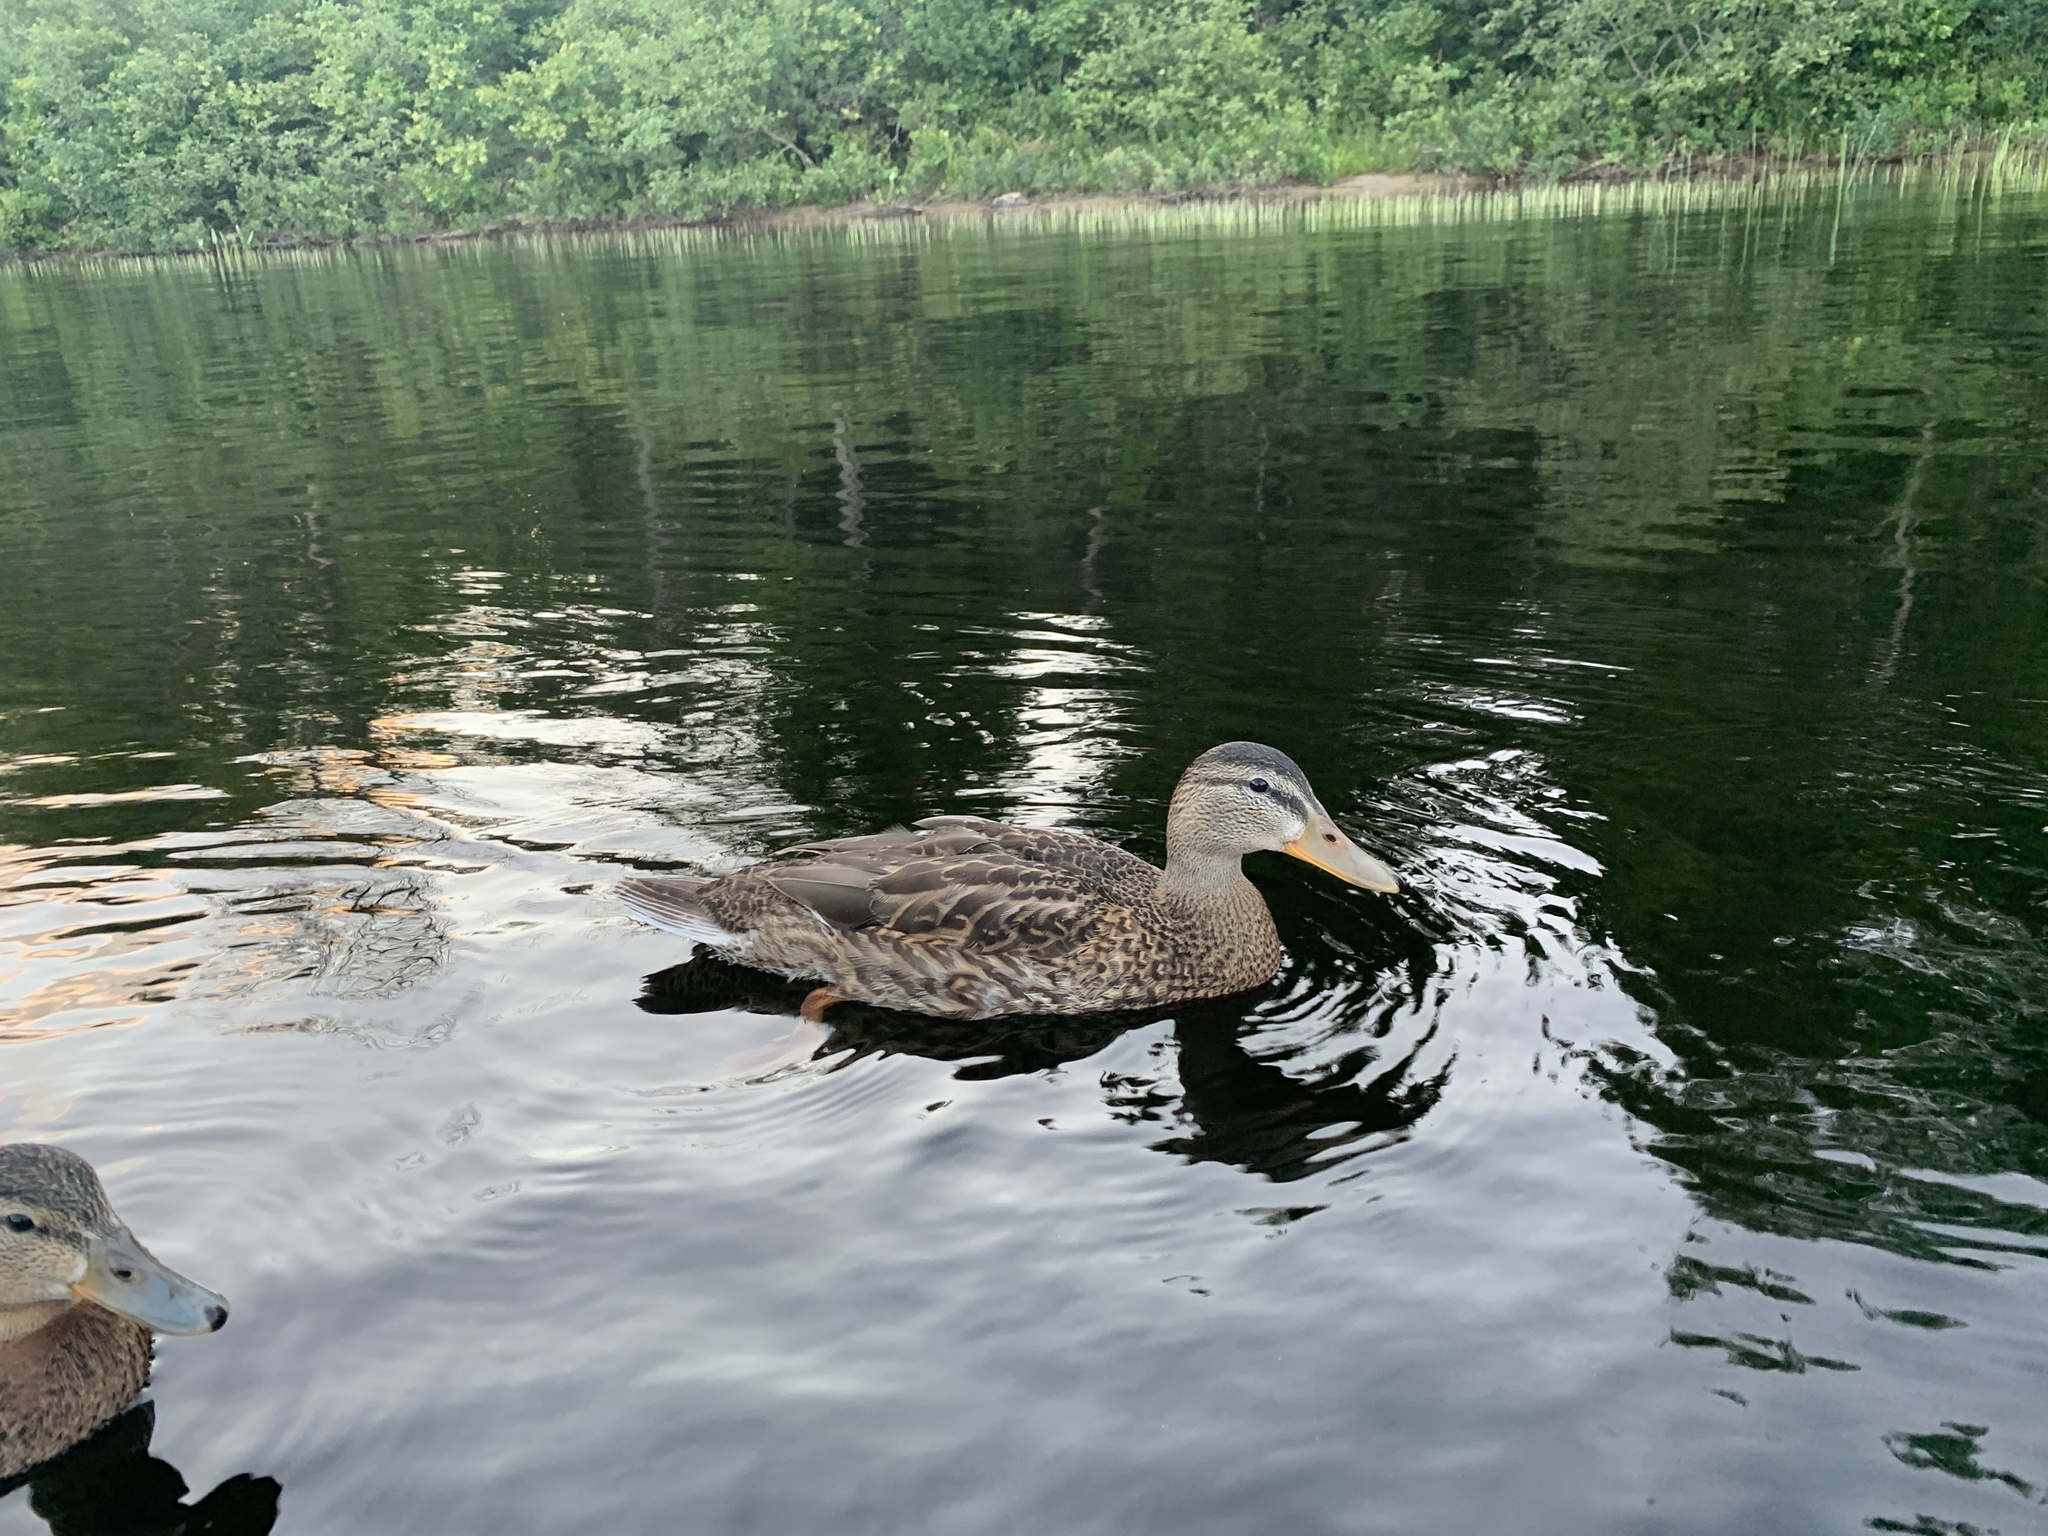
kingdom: Animalia
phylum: Chordata
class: Aves
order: Anseriformes
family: Anatidae
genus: Anas
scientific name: Anas platyrhynchos
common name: Mallard
